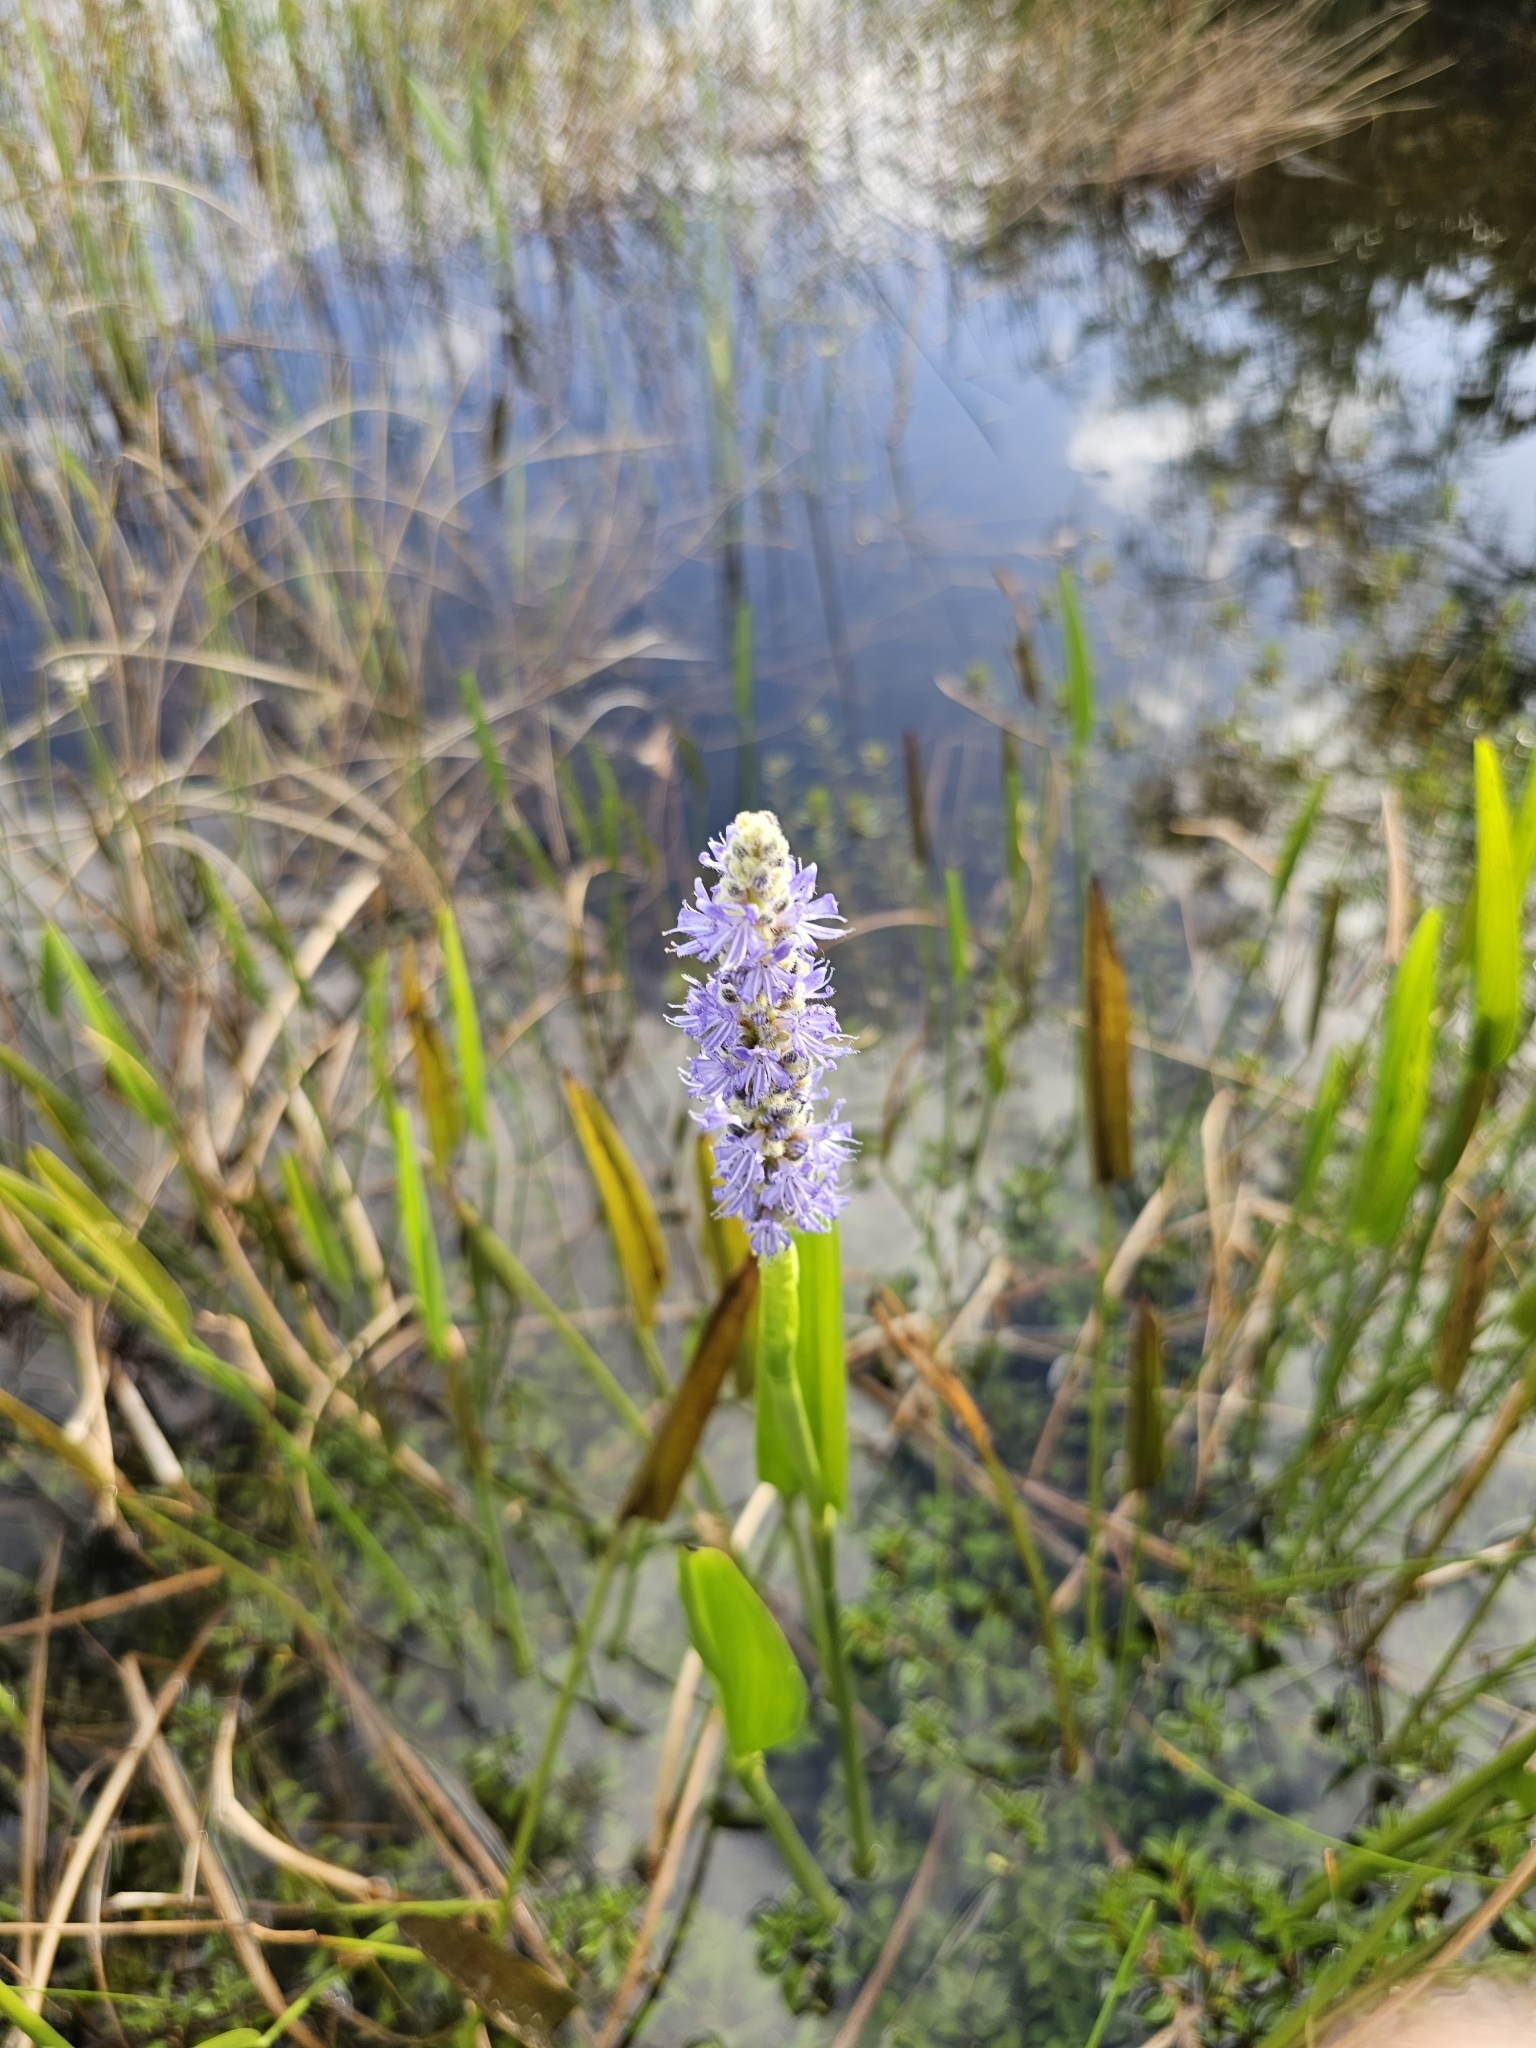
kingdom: Plantae
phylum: Tracheophyta
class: Liliopsida
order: Commelinales
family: Pontederiaceae
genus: Pontederia
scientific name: Pontederia cordata
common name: Pickerelweed
